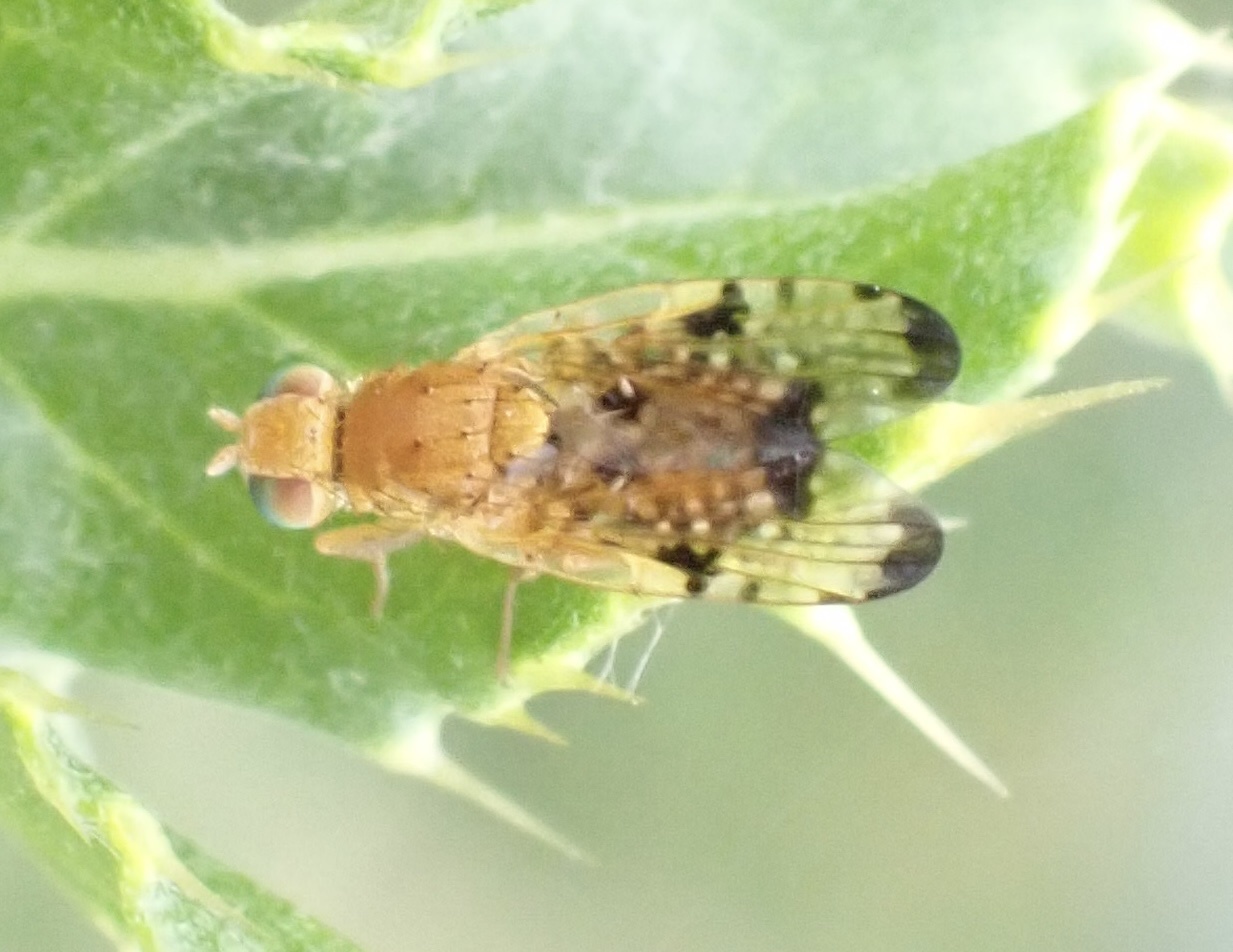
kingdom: Animalia
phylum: Arthropoda
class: Insecta
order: Diptera
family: Tephritidae
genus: Xyphosia
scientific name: Xyphosia miliaria
